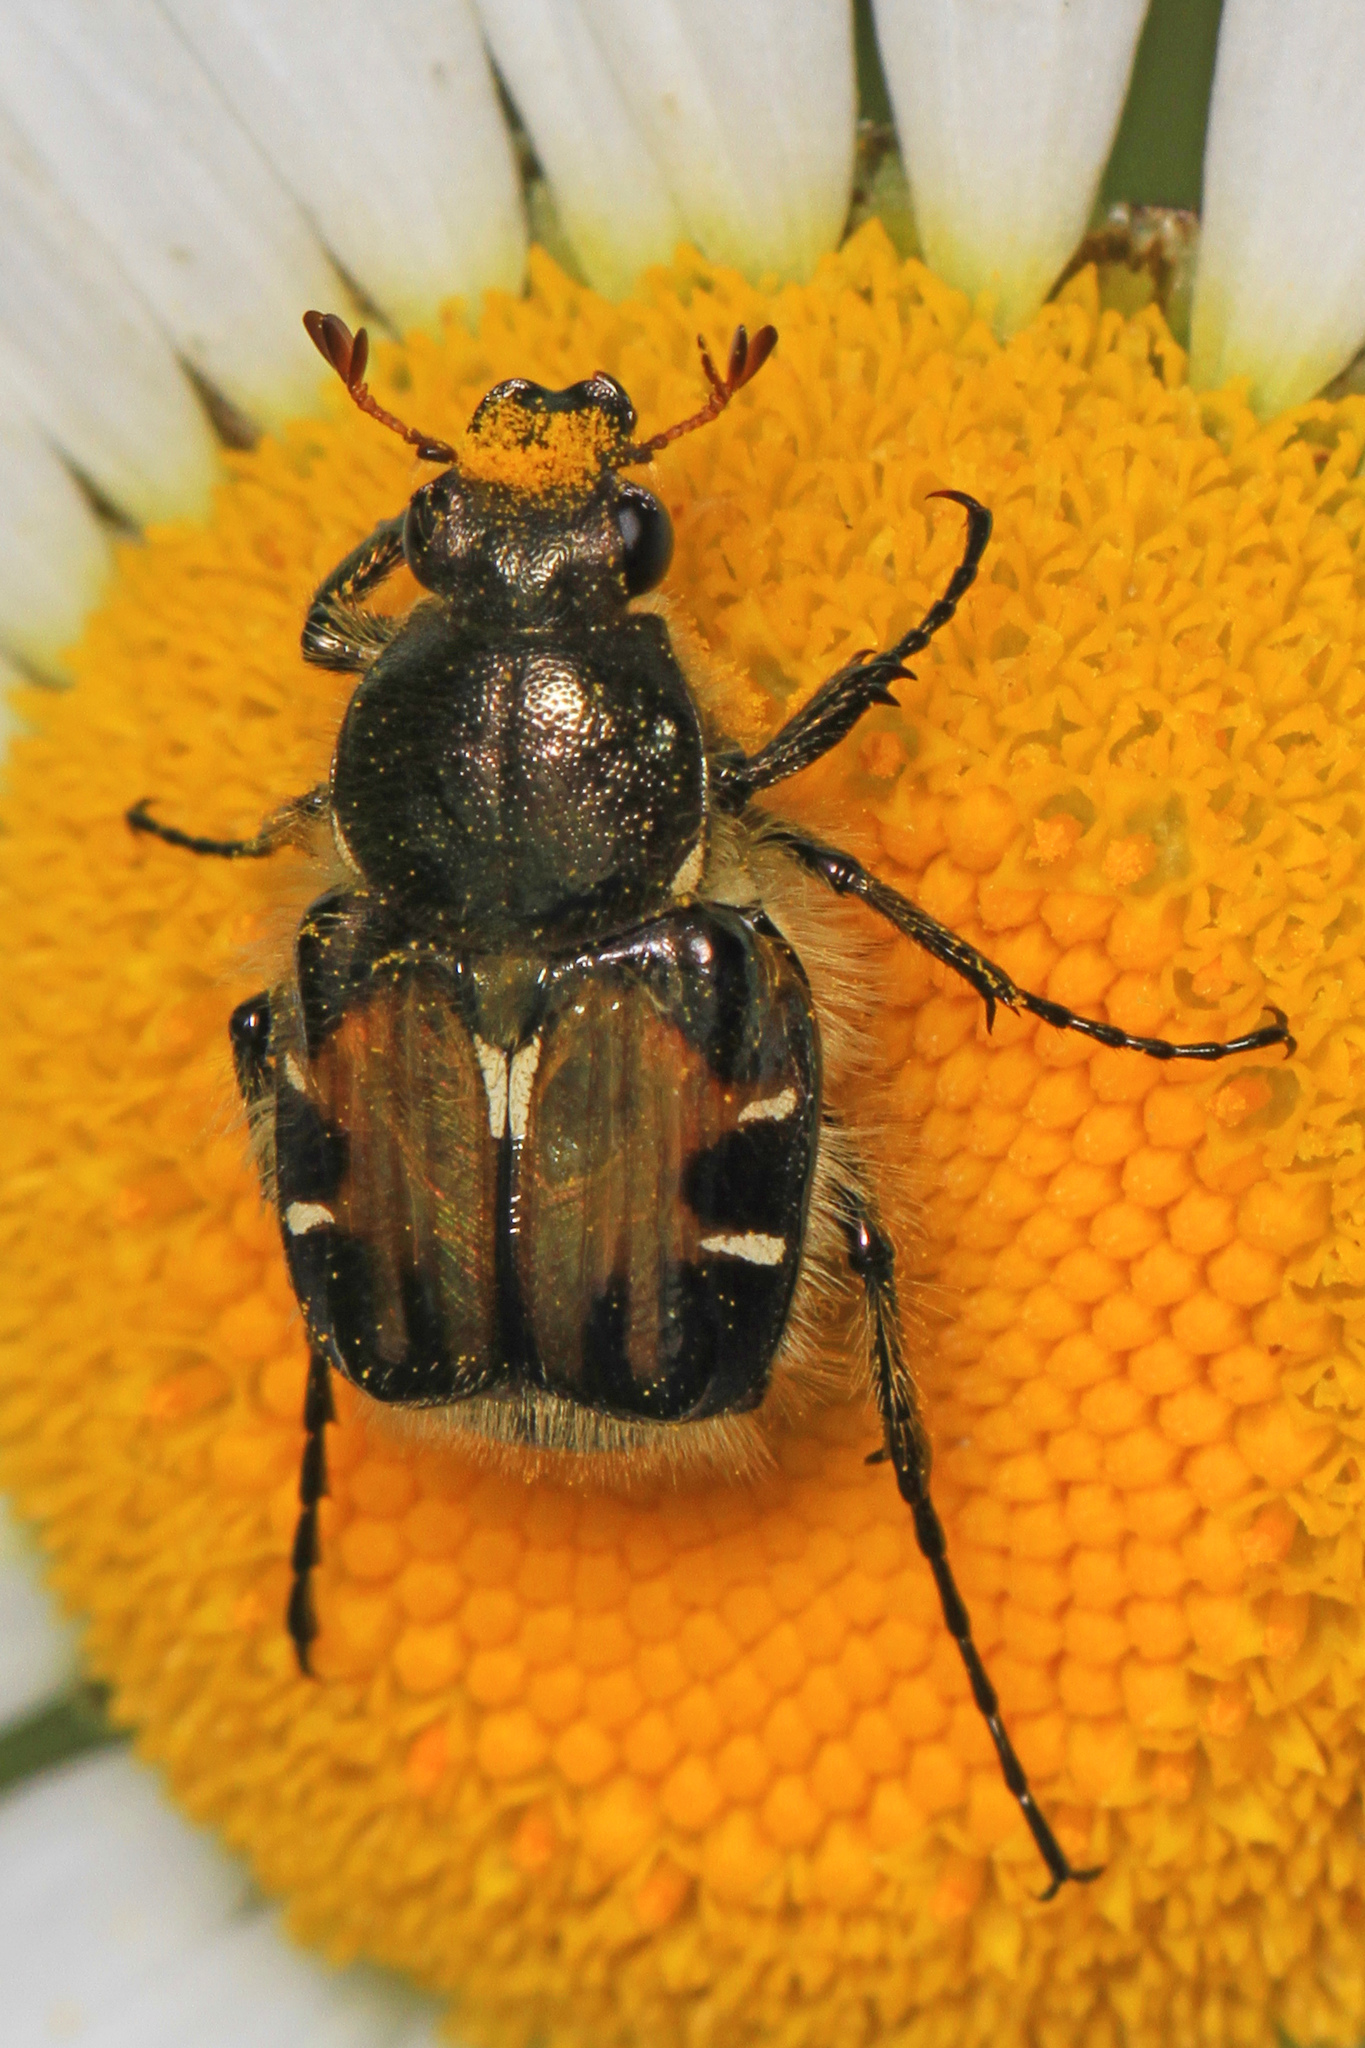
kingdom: Animalia
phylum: Arthropoda
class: Insecta
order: Coleoptera
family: Scarabaeidae
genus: Trichiotinus
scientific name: Trichiotinus affinis
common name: Hairy flower scarab
